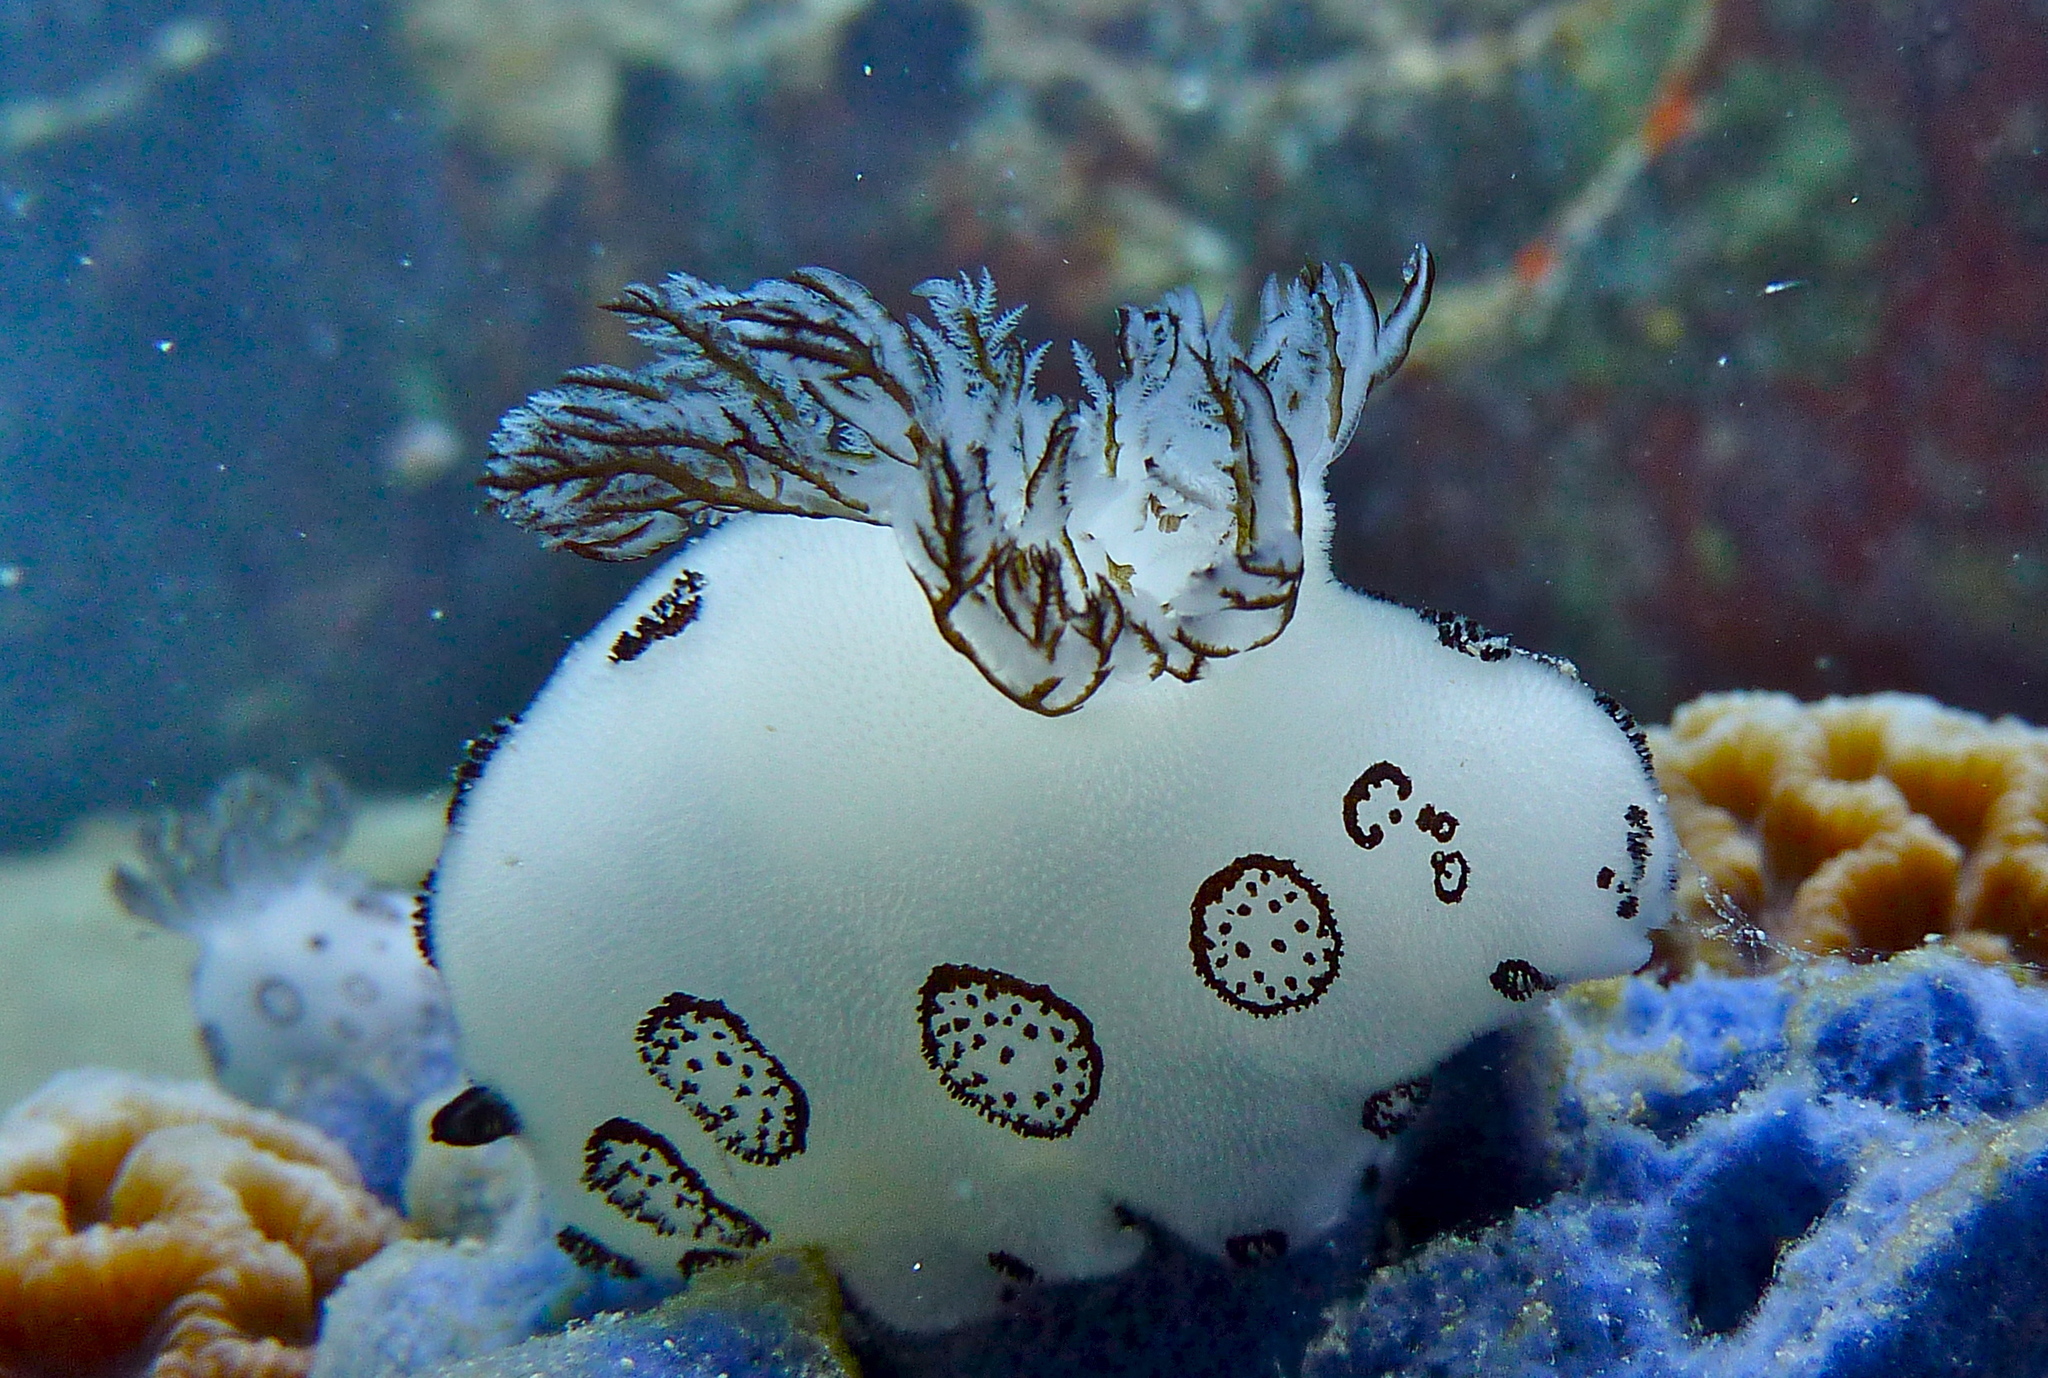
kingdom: Animalia
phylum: Mollusca
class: Gastropoda
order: Nudibranchia
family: Discodorididae
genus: Jorunna
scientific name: Jorunna funebris
